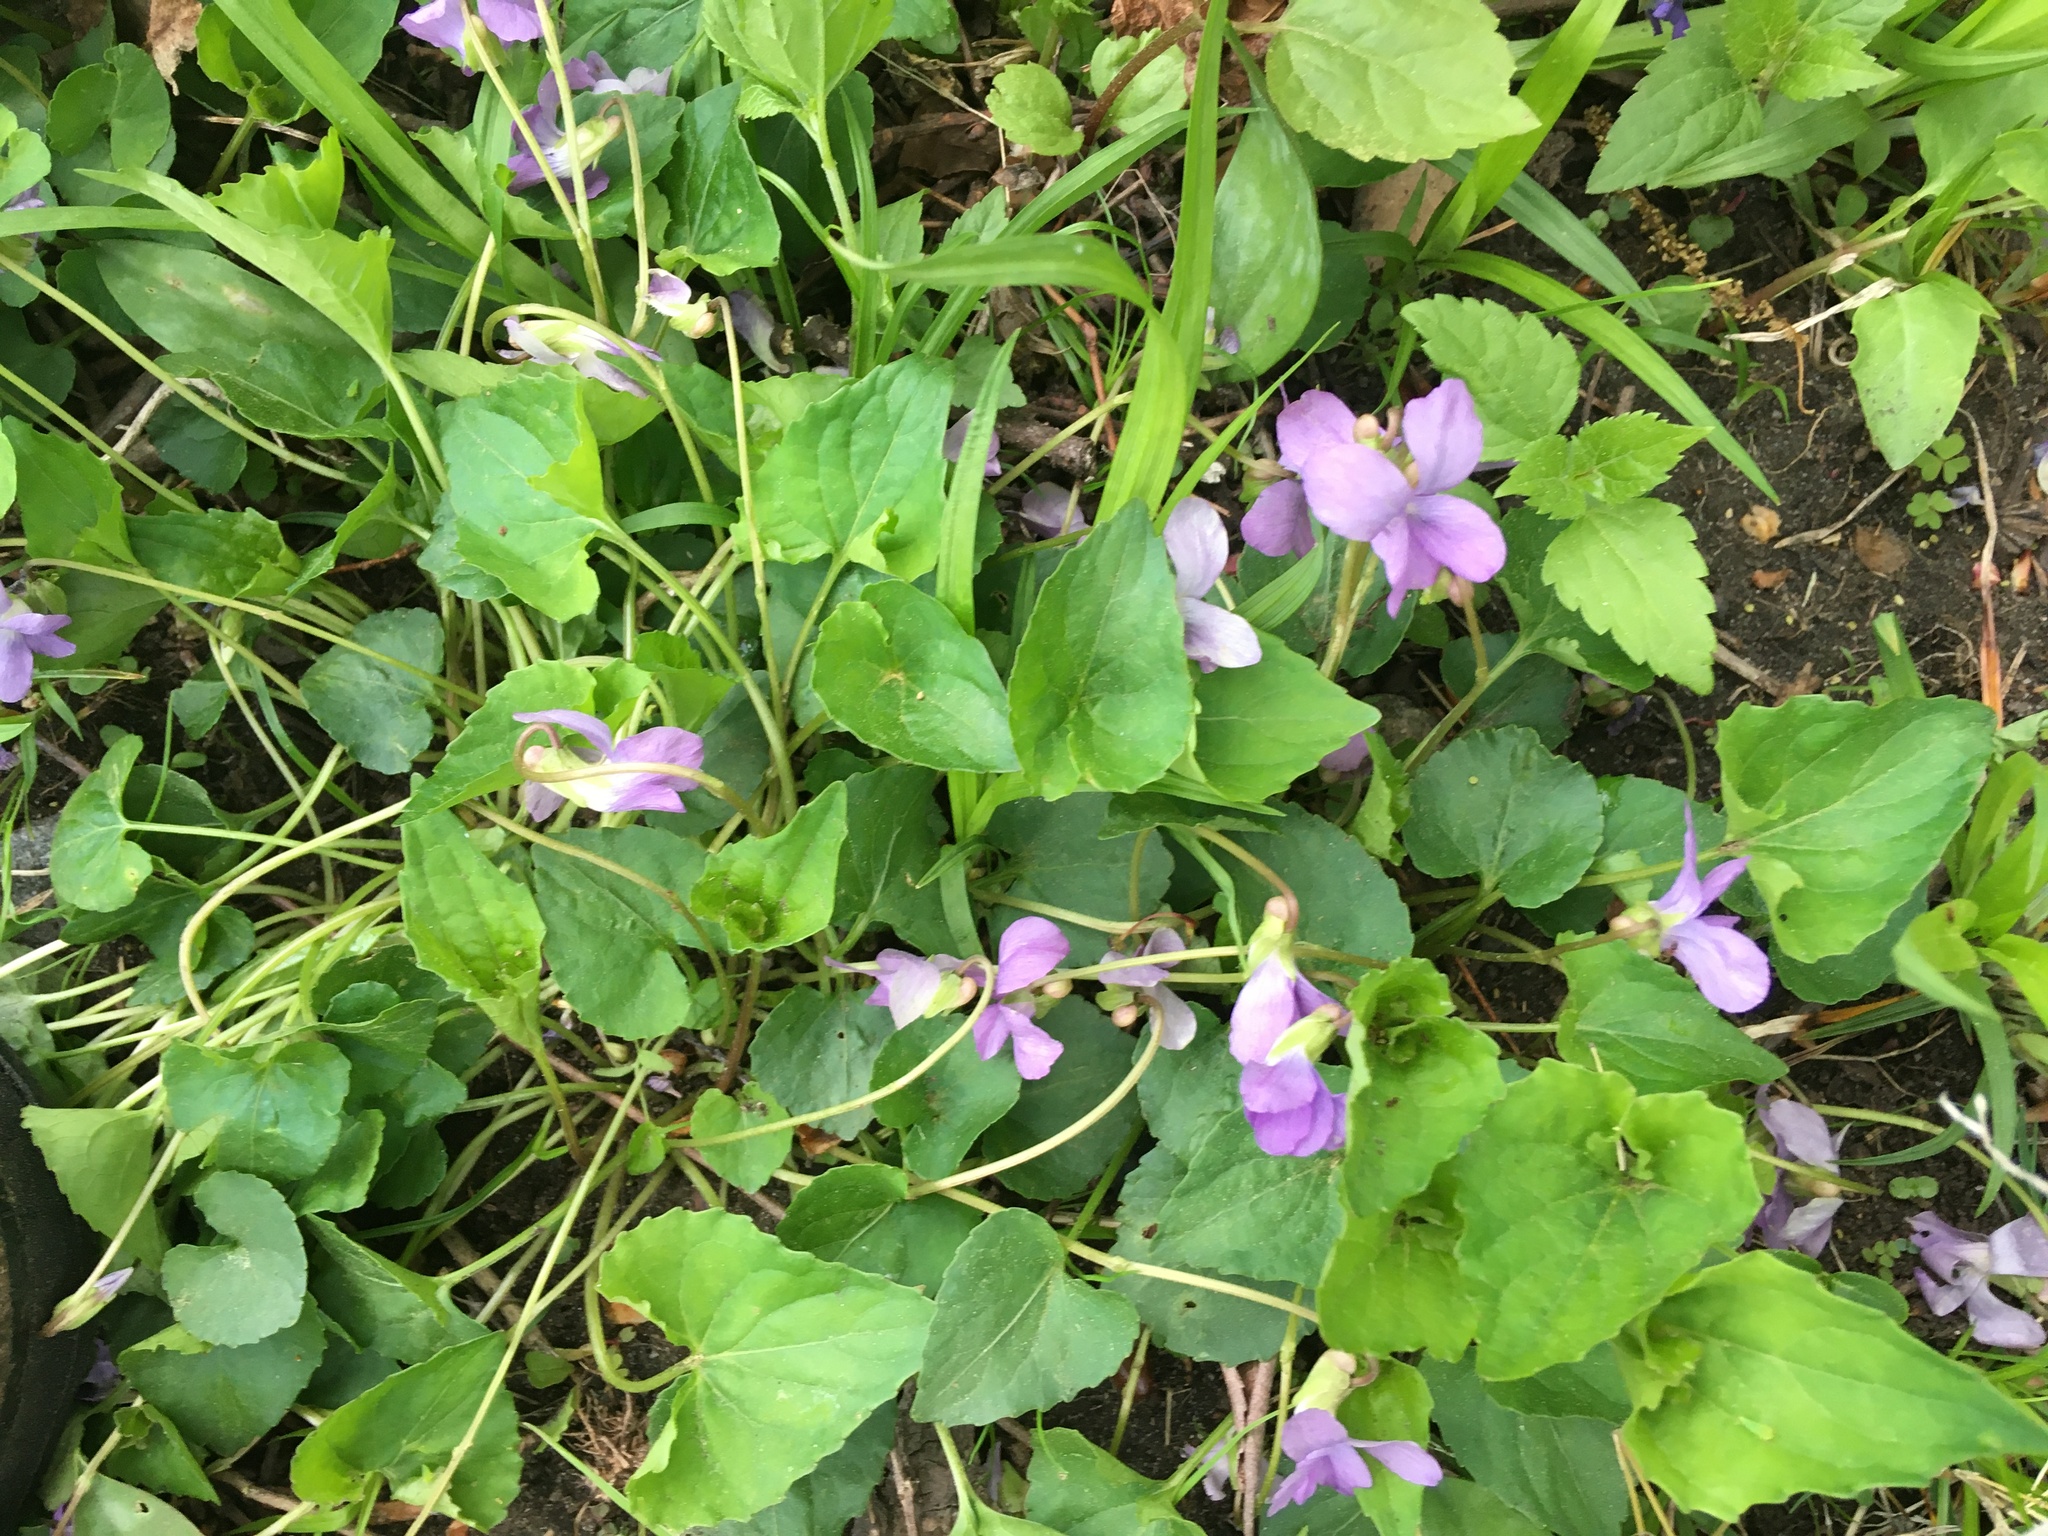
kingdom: Plantae
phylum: Tracheophyta
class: Magnoliopsida
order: Malpighiales
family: Violaceae
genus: Viola
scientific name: Viola sororia
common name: Dooryard violet
